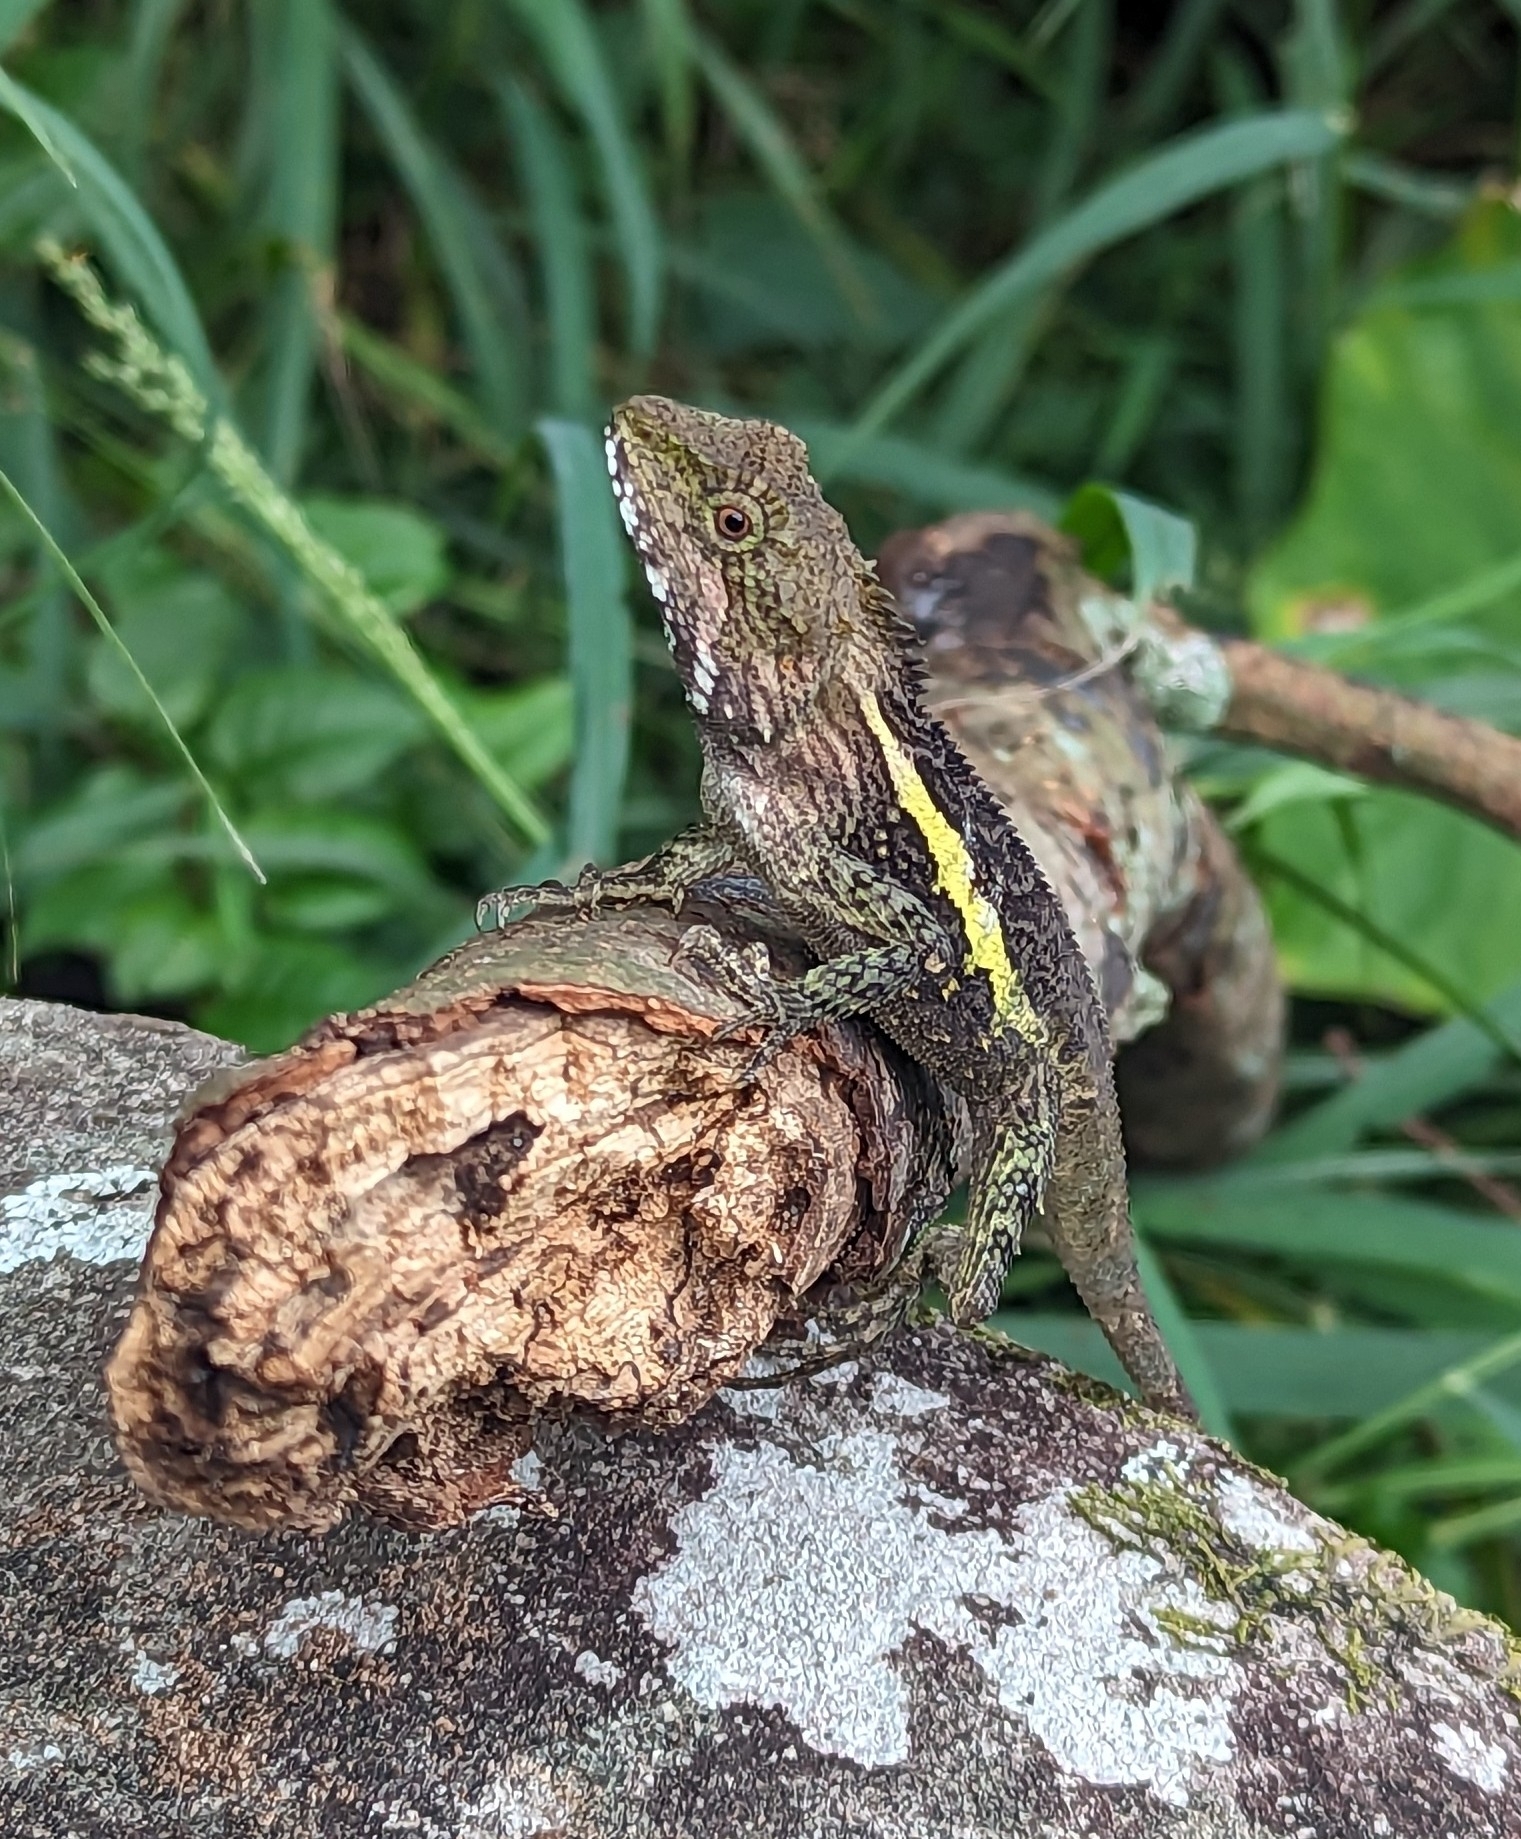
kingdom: Animalia
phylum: Chordata
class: Squamata
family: Agamidae
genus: Diploderma
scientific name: Diploderma swinhonis
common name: Taiwan japalure
